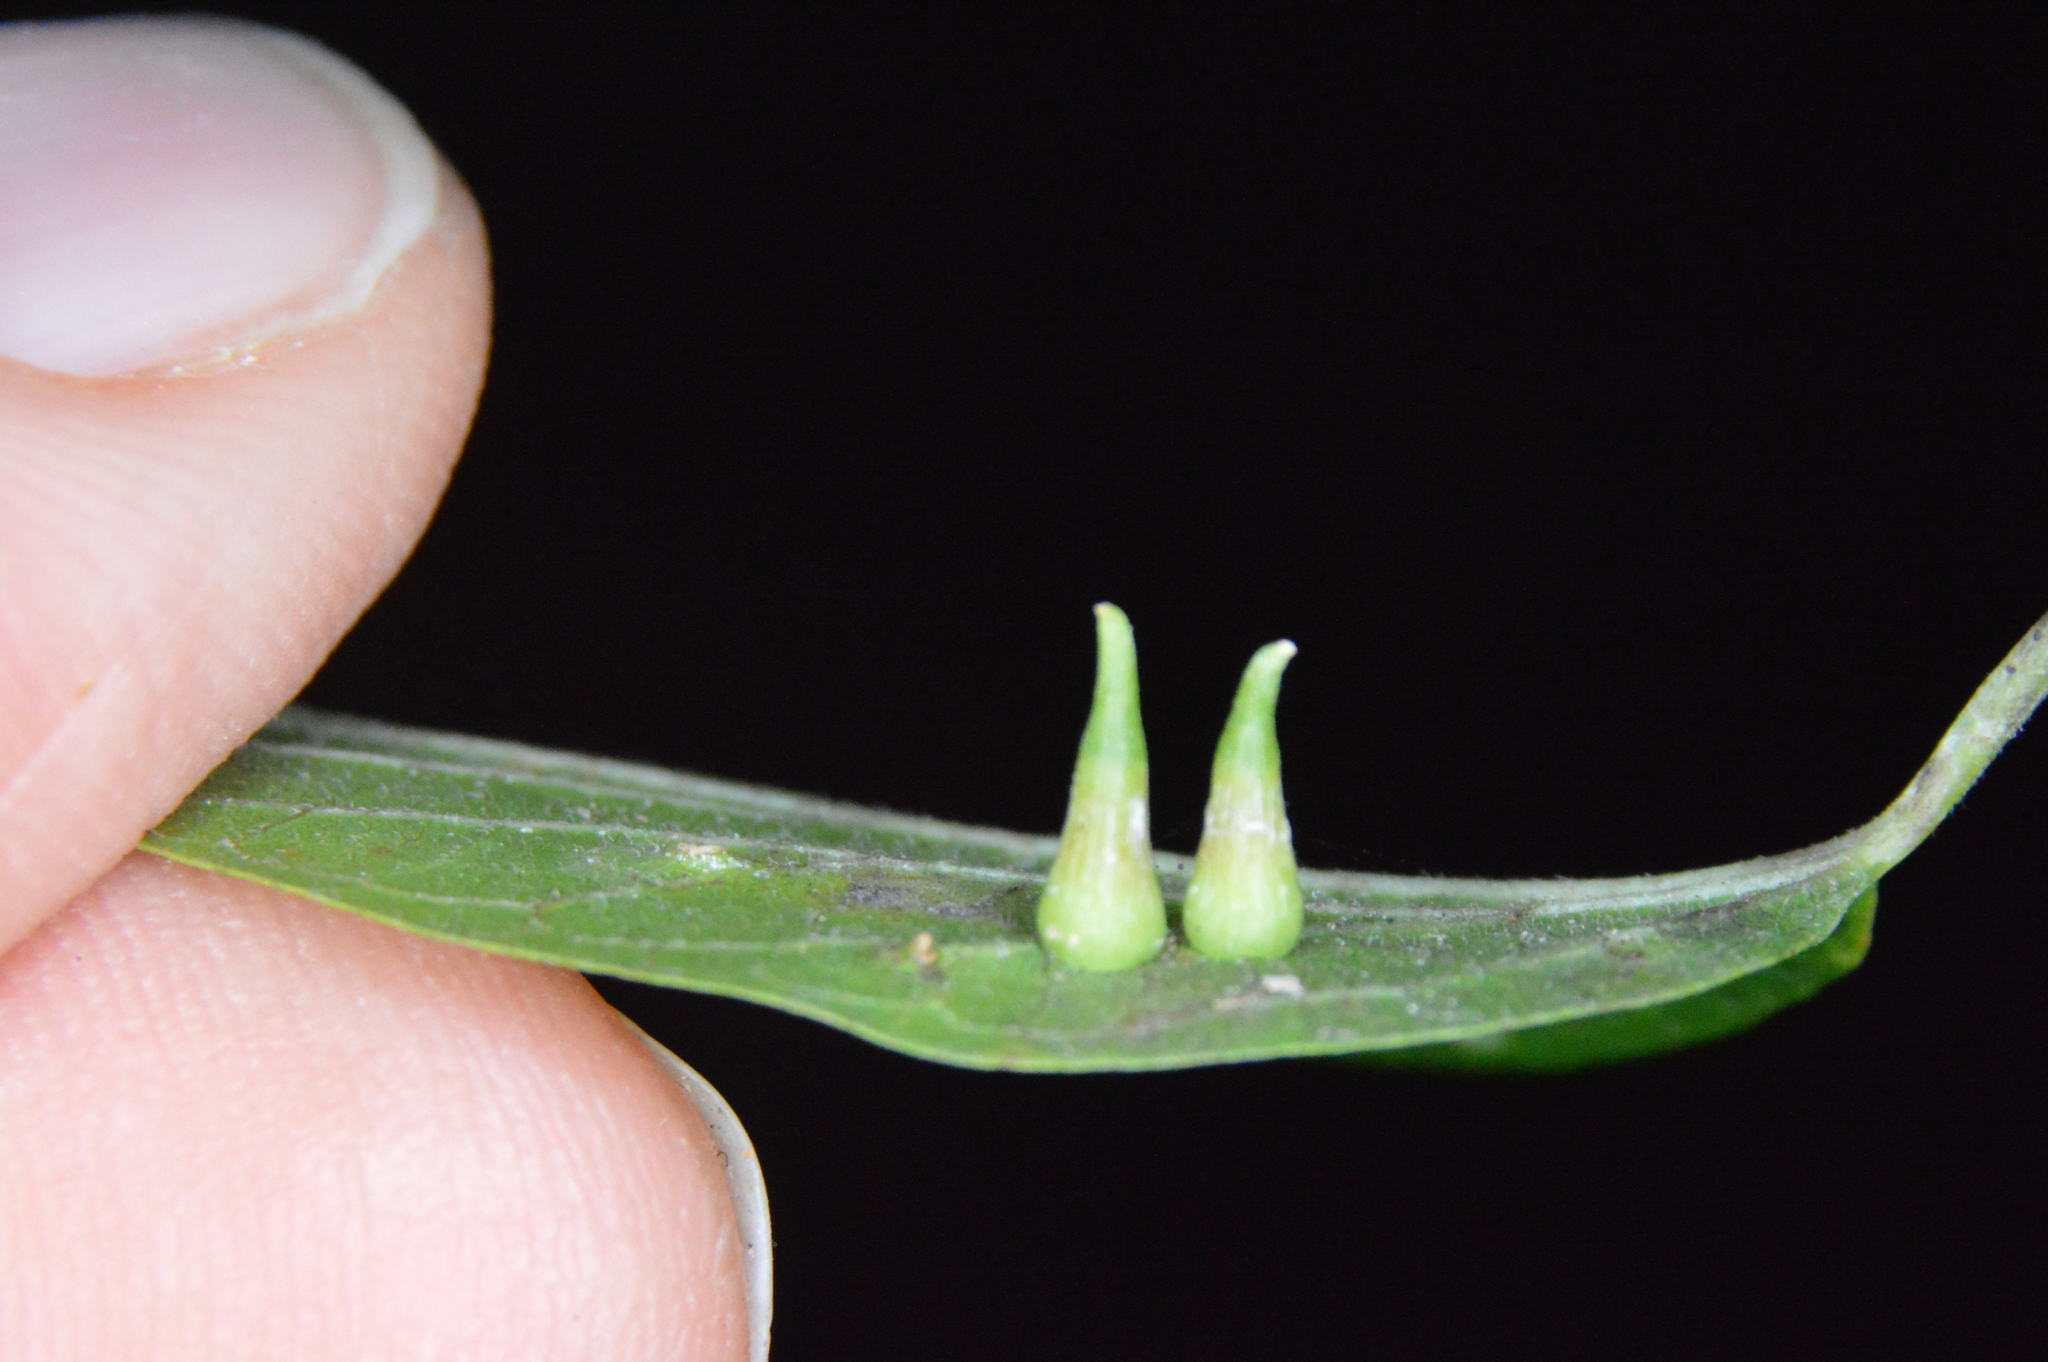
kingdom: Animalia
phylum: Arthropoda
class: Insecta
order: Diptera
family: Cecidomyiidae
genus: Celticecis
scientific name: Celticecis subulata
